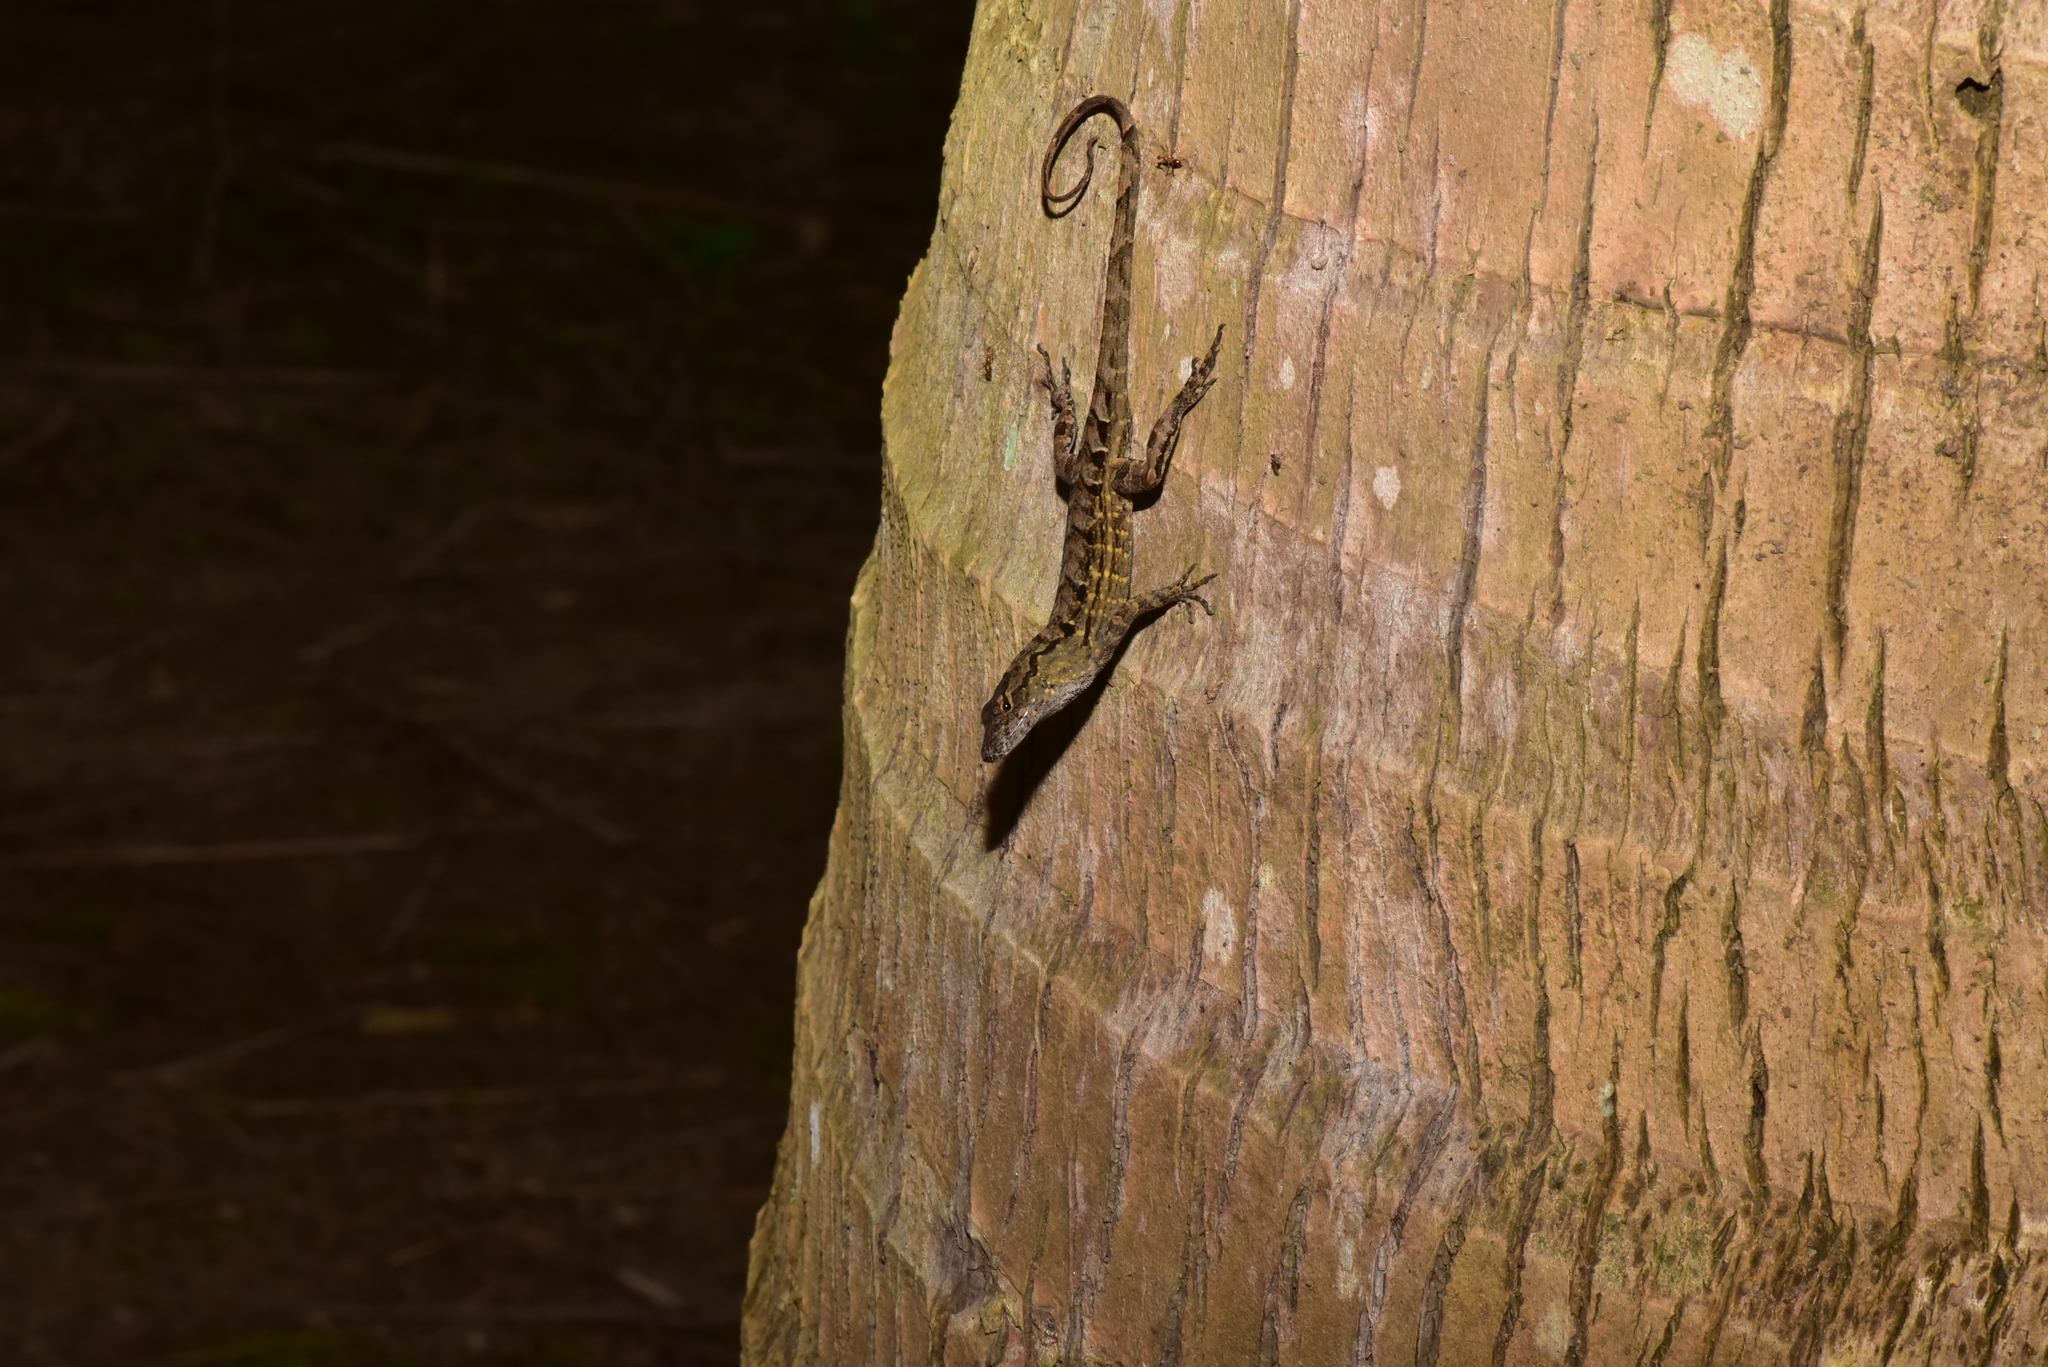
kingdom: Animalia
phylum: Chordata
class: Squamata
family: Dactyloidae
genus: Anolis
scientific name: Anolis sagrei
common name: Brown anole
